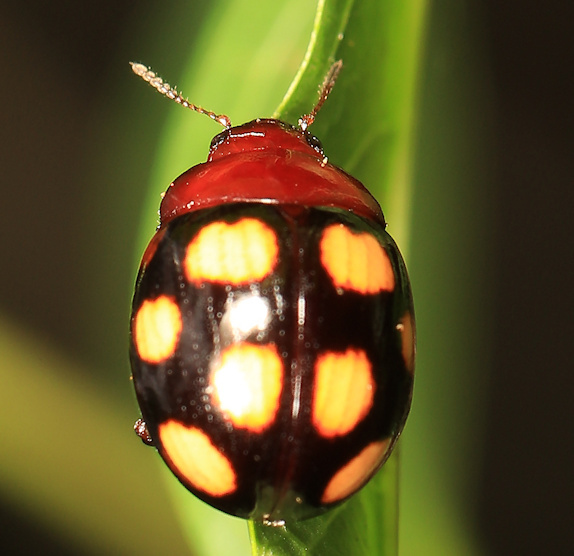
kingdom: Animalia
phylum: Arthropoda
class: Insecta
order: Coleoptera
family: Chrysomelidae
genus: Chrysolina
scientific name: Chrysolina
